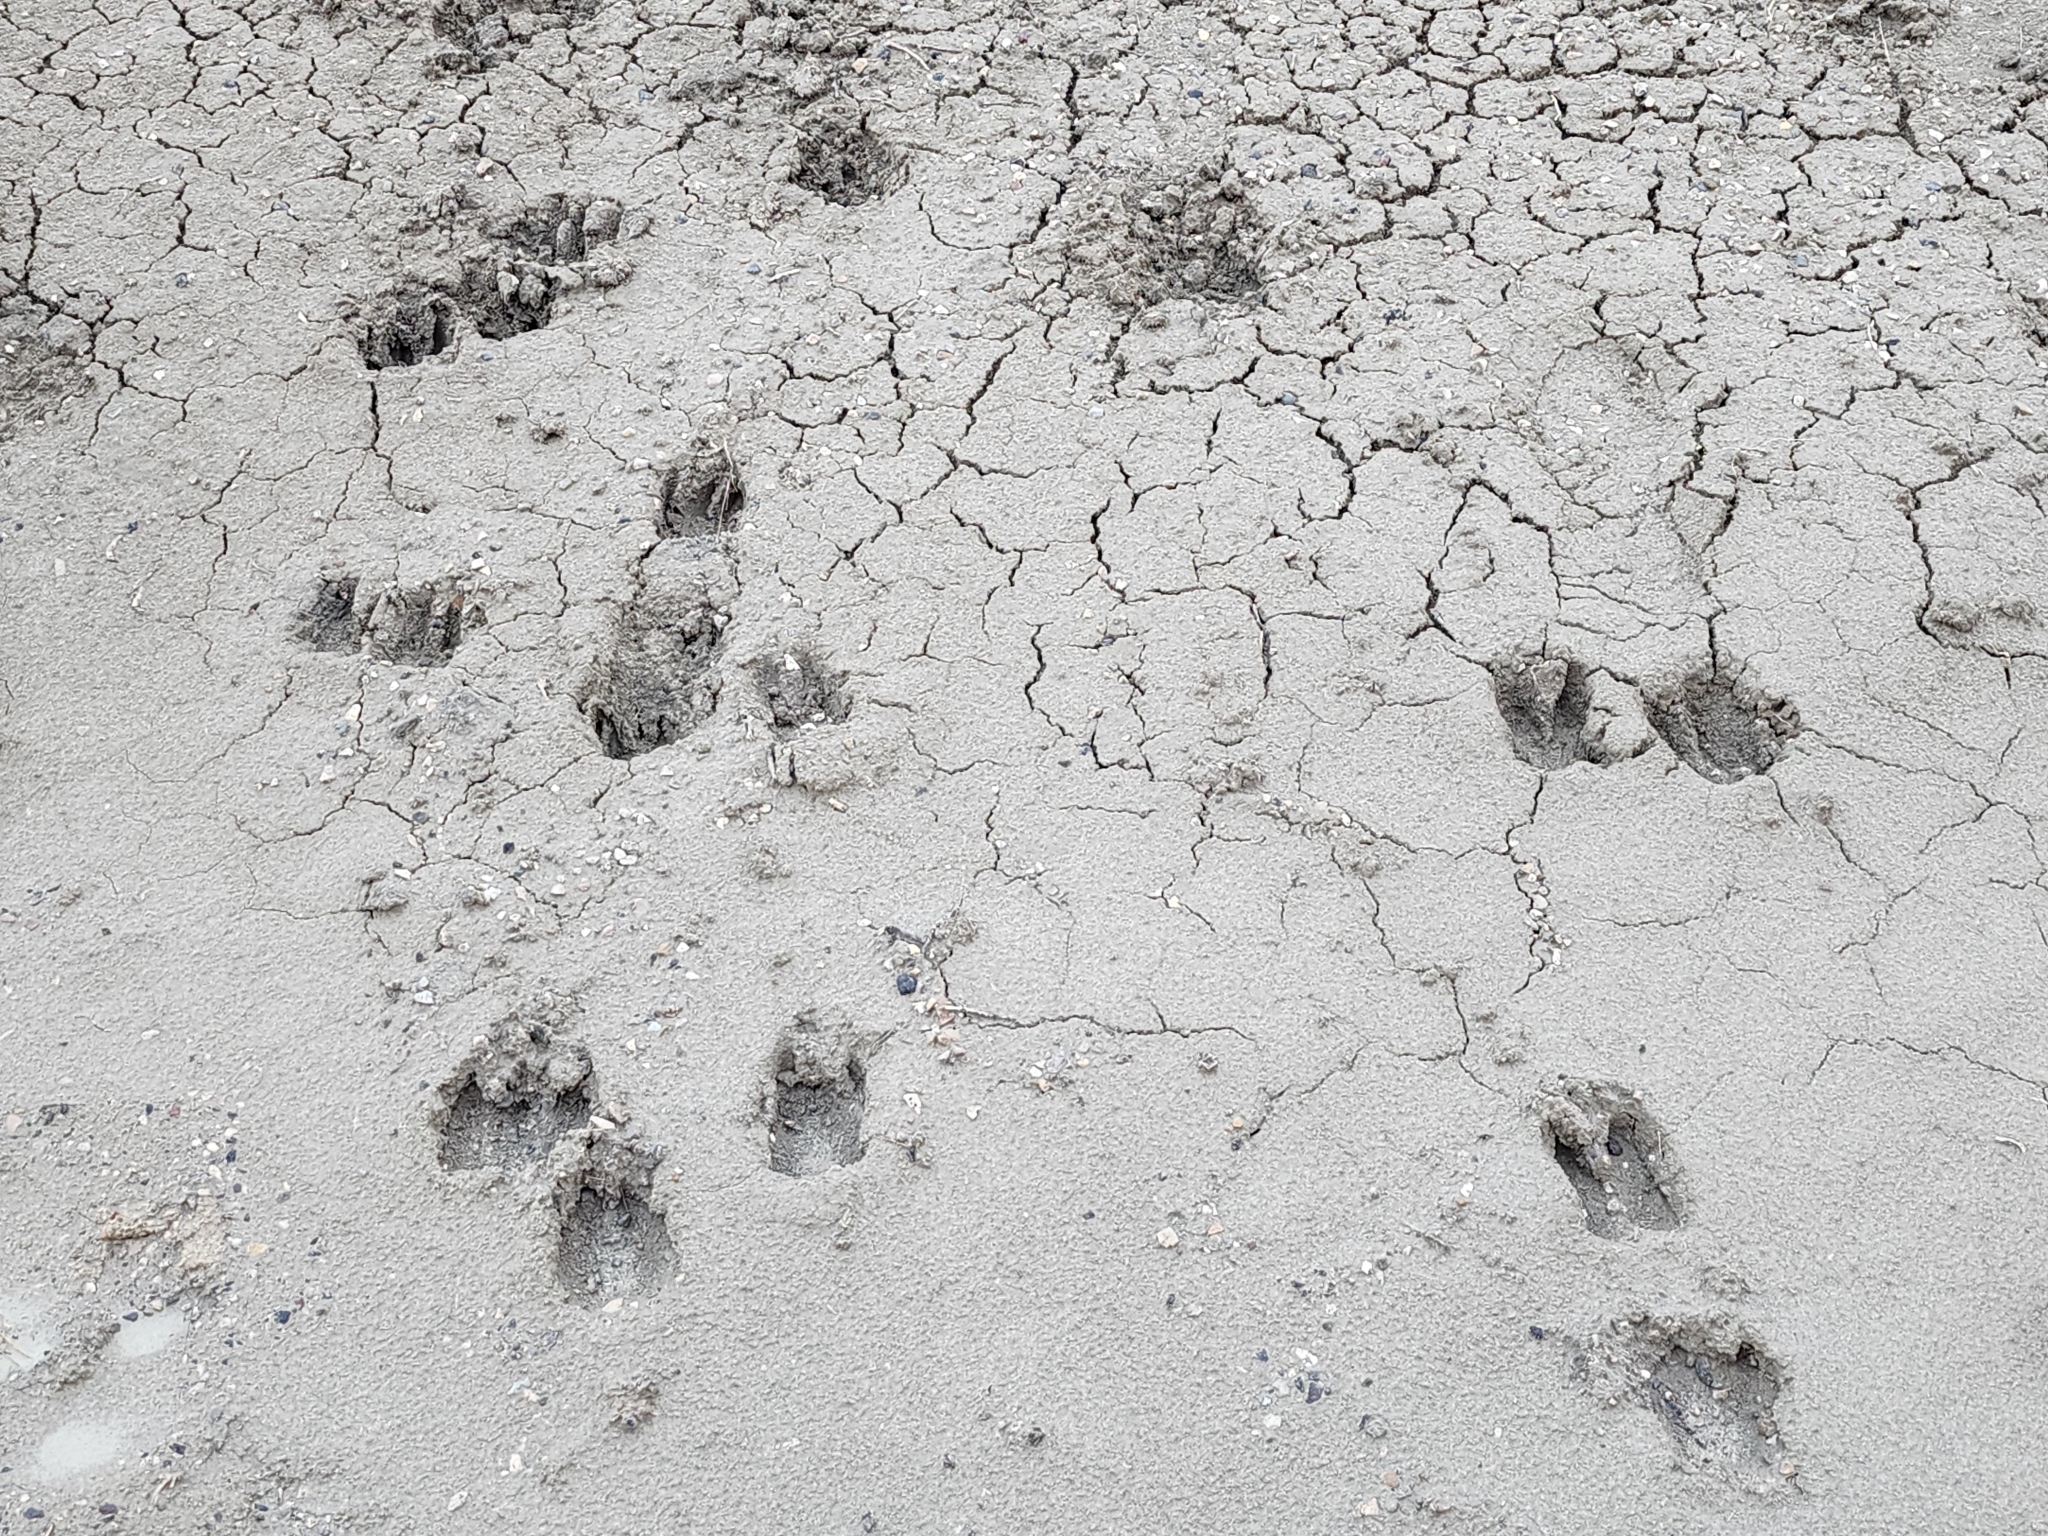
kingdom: Animalia
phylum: Chordata
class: Mammalia
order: Artiodactyla
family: Cervidae
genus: Odocoileus
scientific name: Odocoileus hemionus
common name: Mule deer
